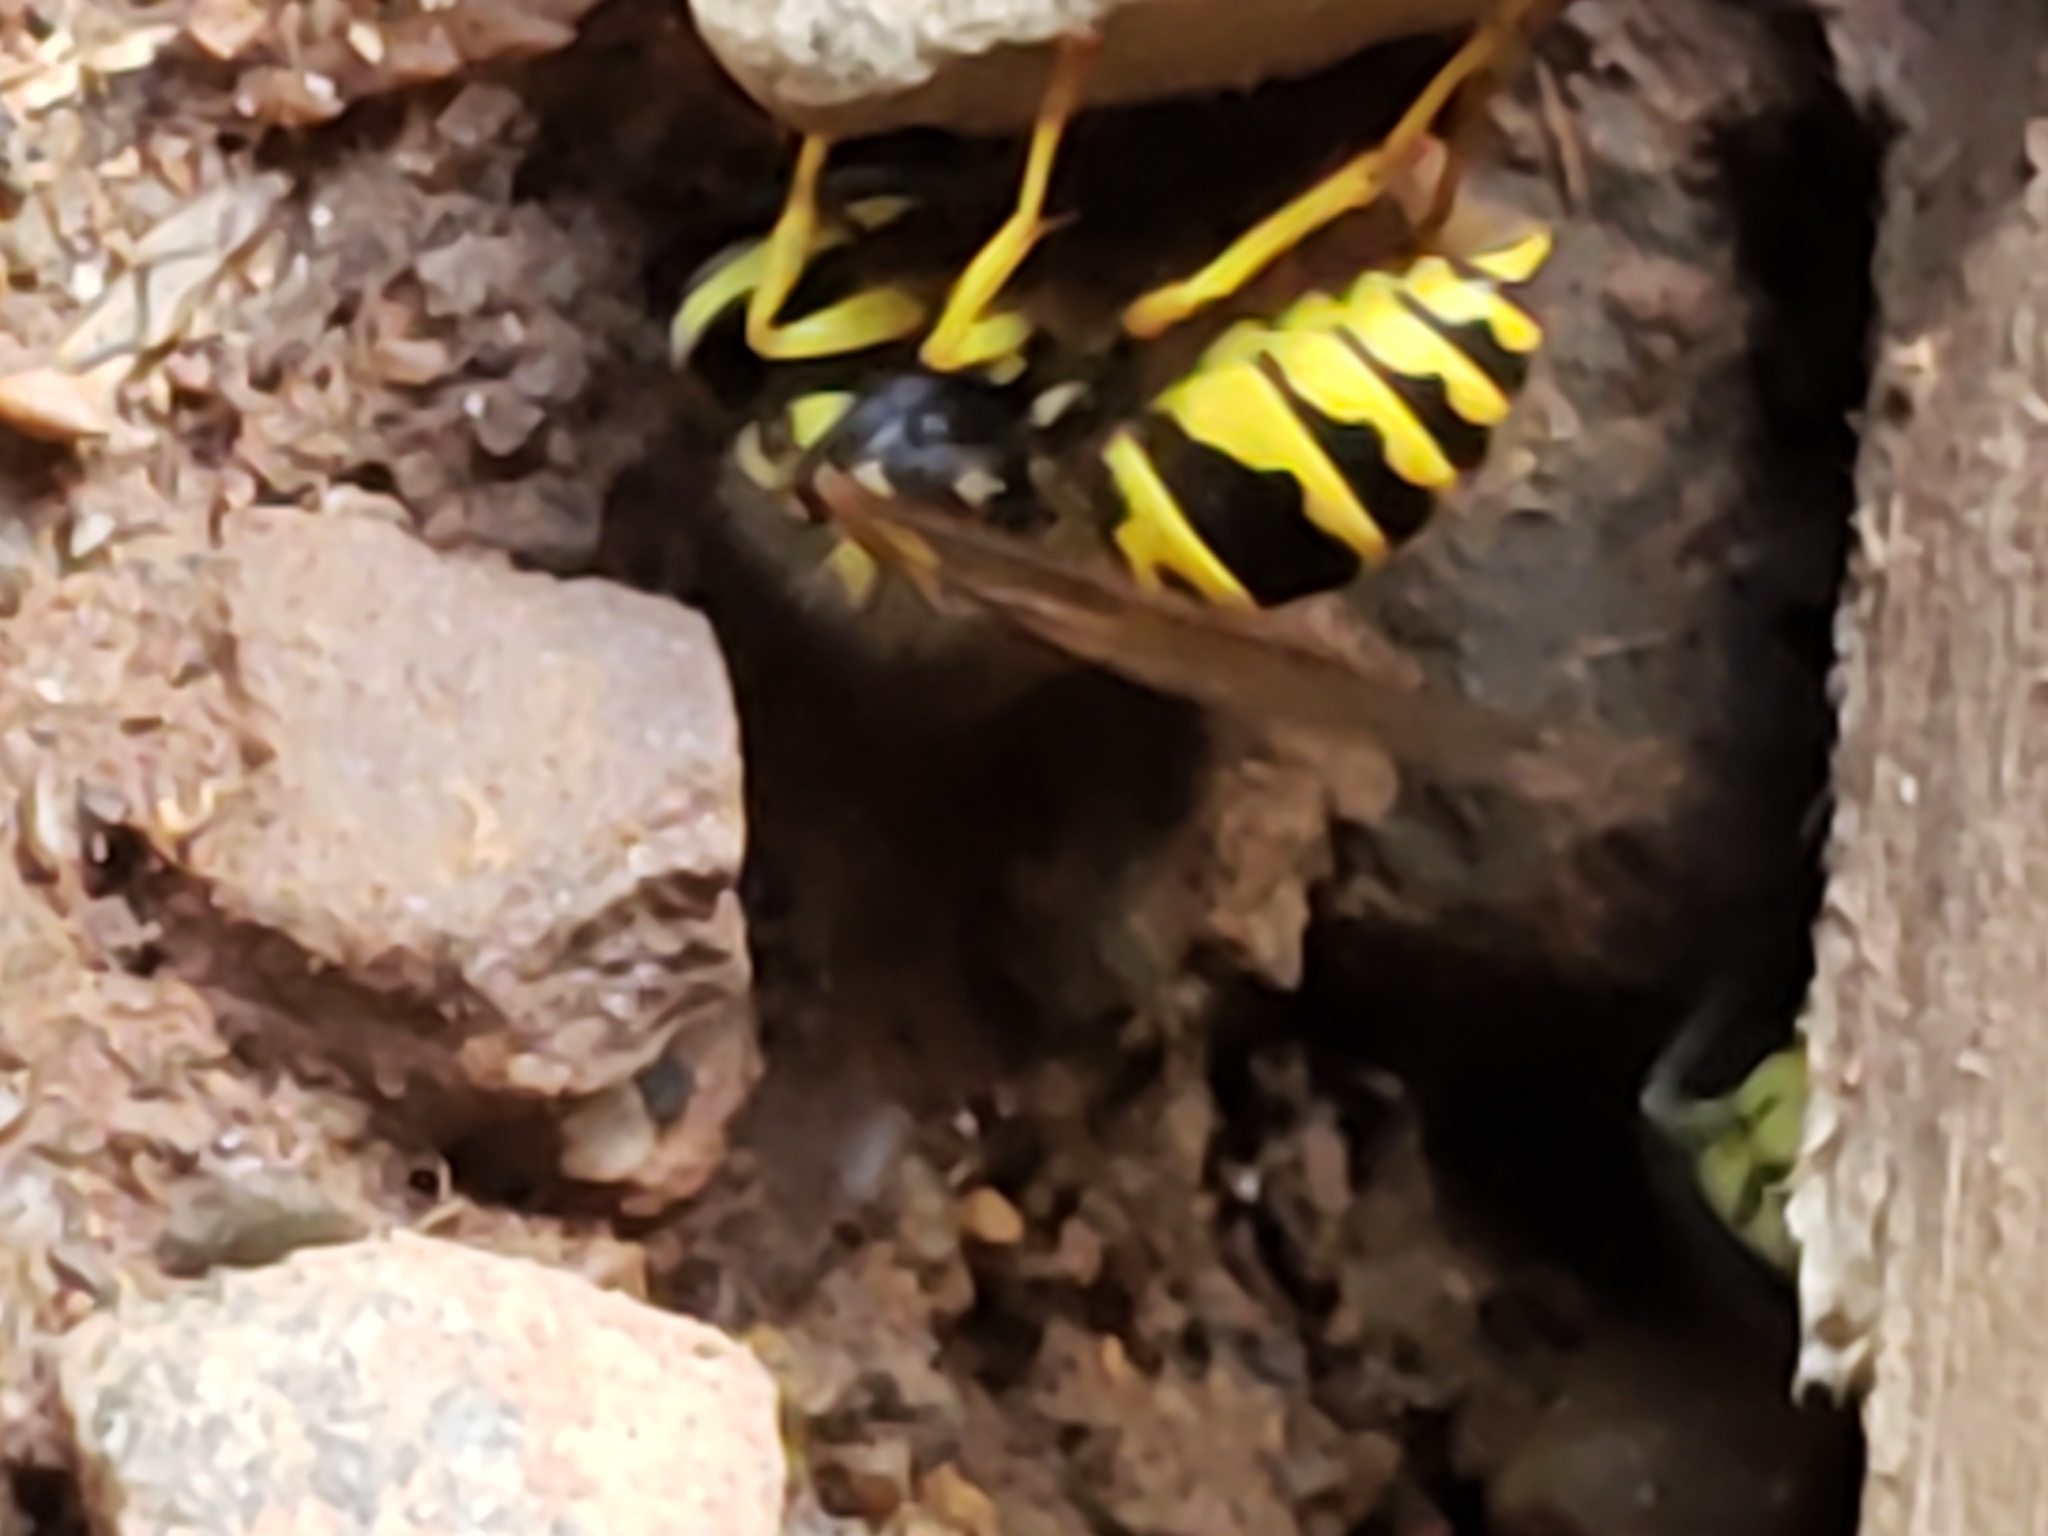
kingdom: Animalia
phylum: Arthropoda
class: Insecta
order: Hymenoptera
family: Vespidae
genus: Vespula
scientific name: Vespula maculifrons
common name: Eastern yellowjacket
